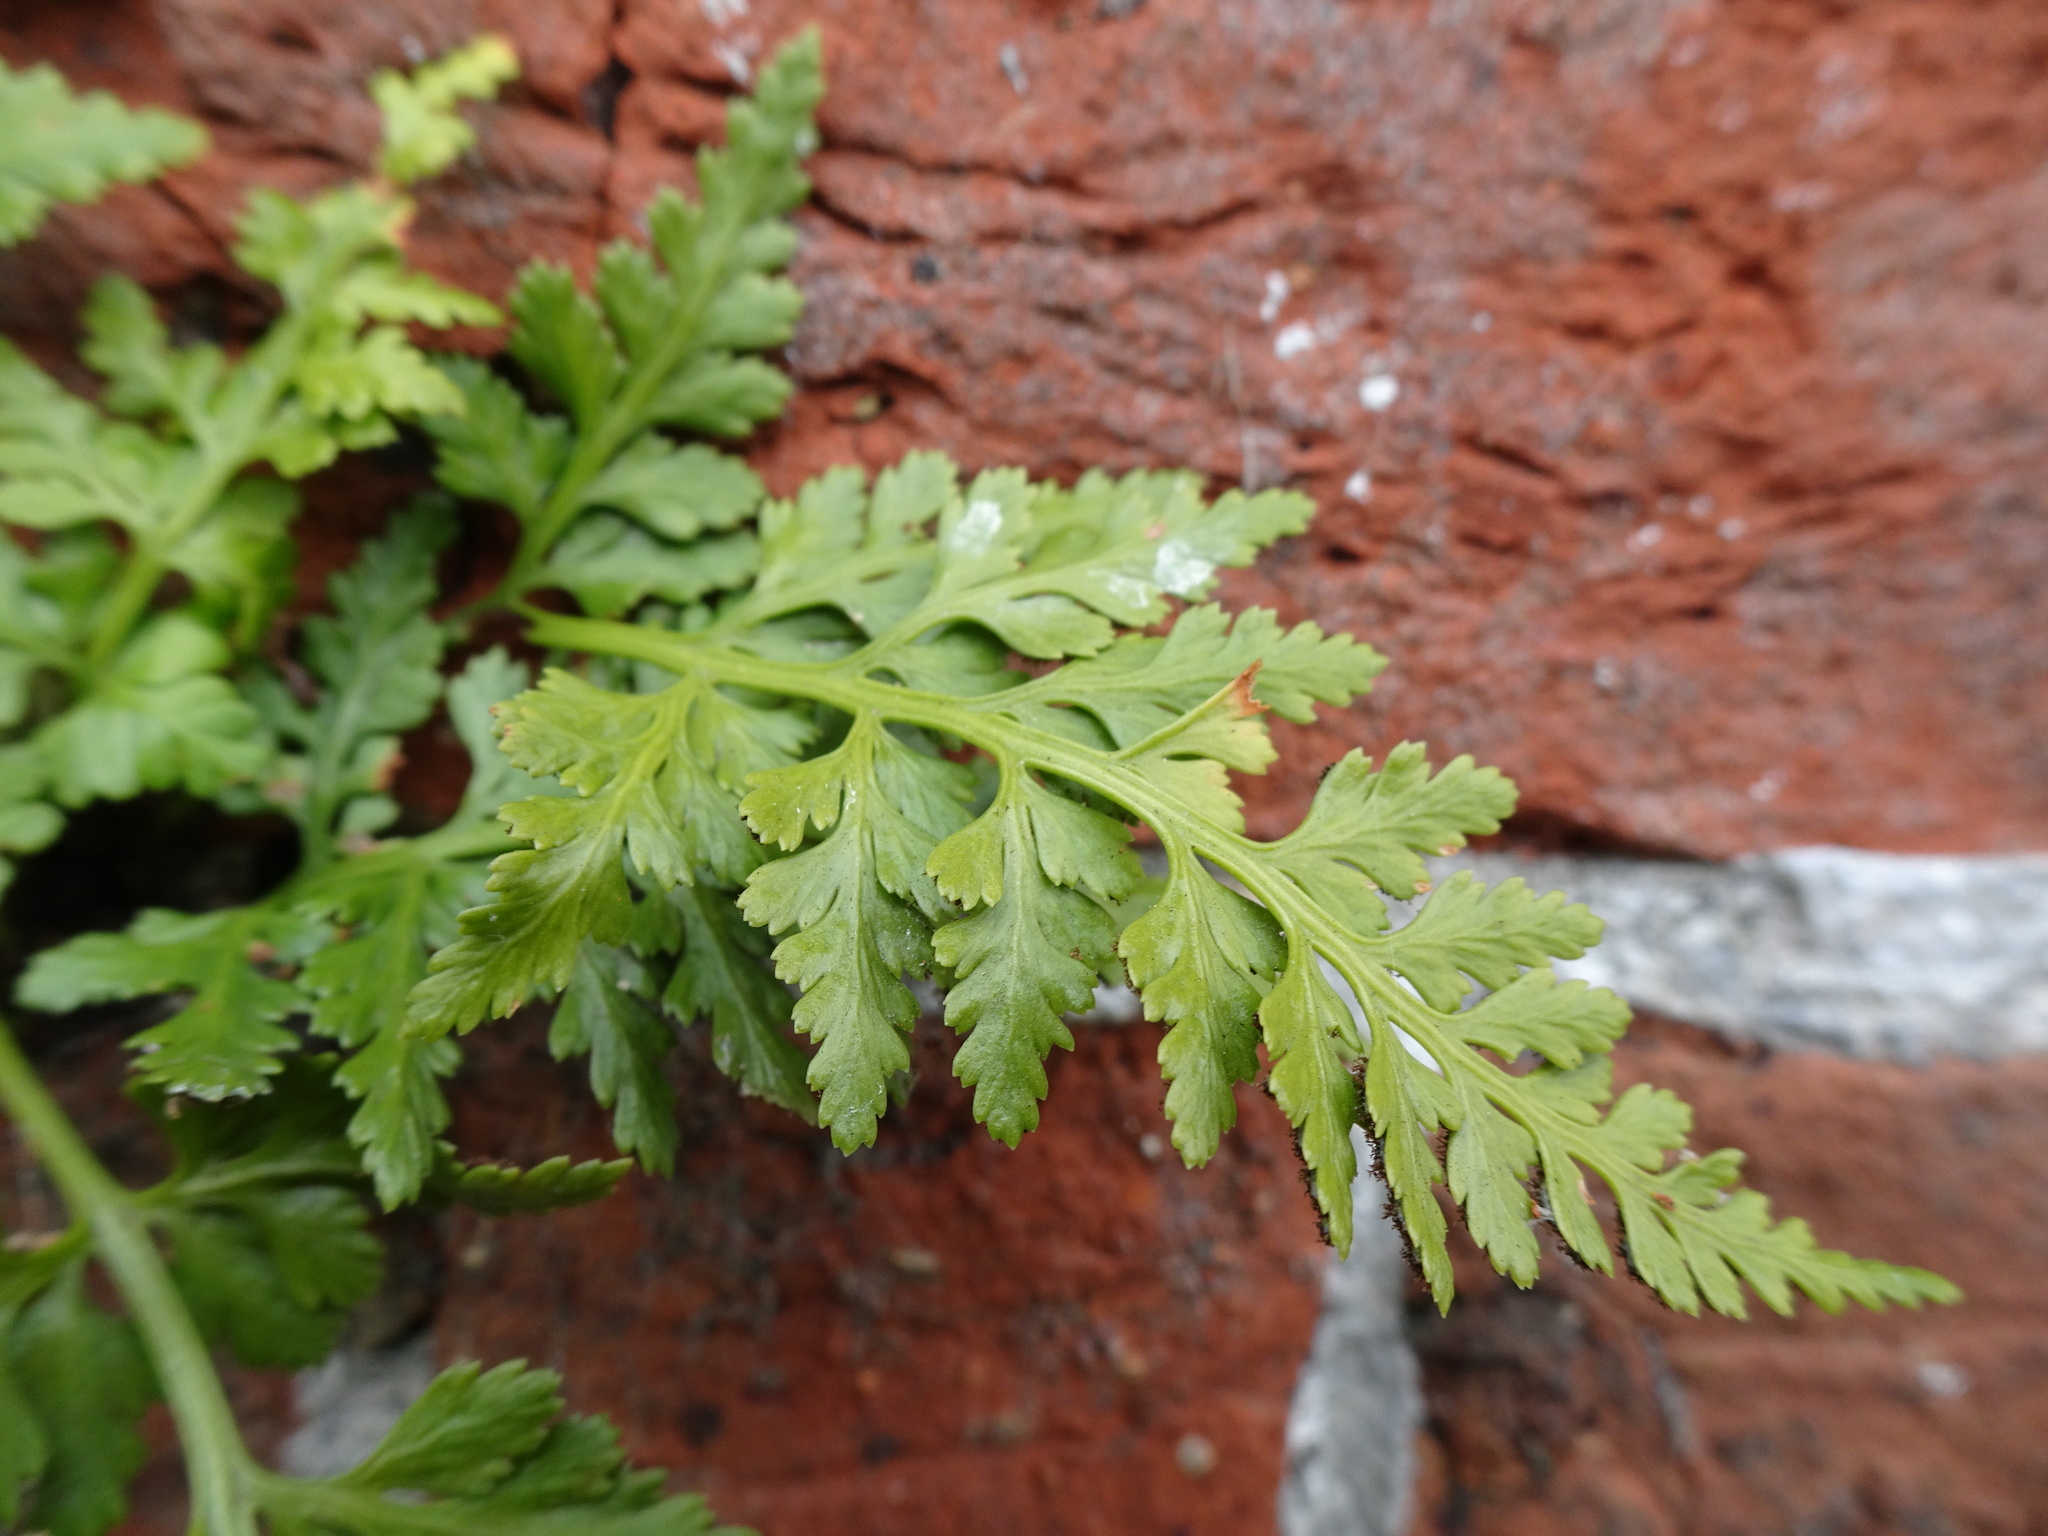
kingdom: Plantae
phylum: Tracheophyta
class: Polypodiopsida
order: Polypodiales
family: Aspleniaceae
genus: Asplenium
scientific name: Asplenium adiantum-nigrum
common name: Black spleenwort
